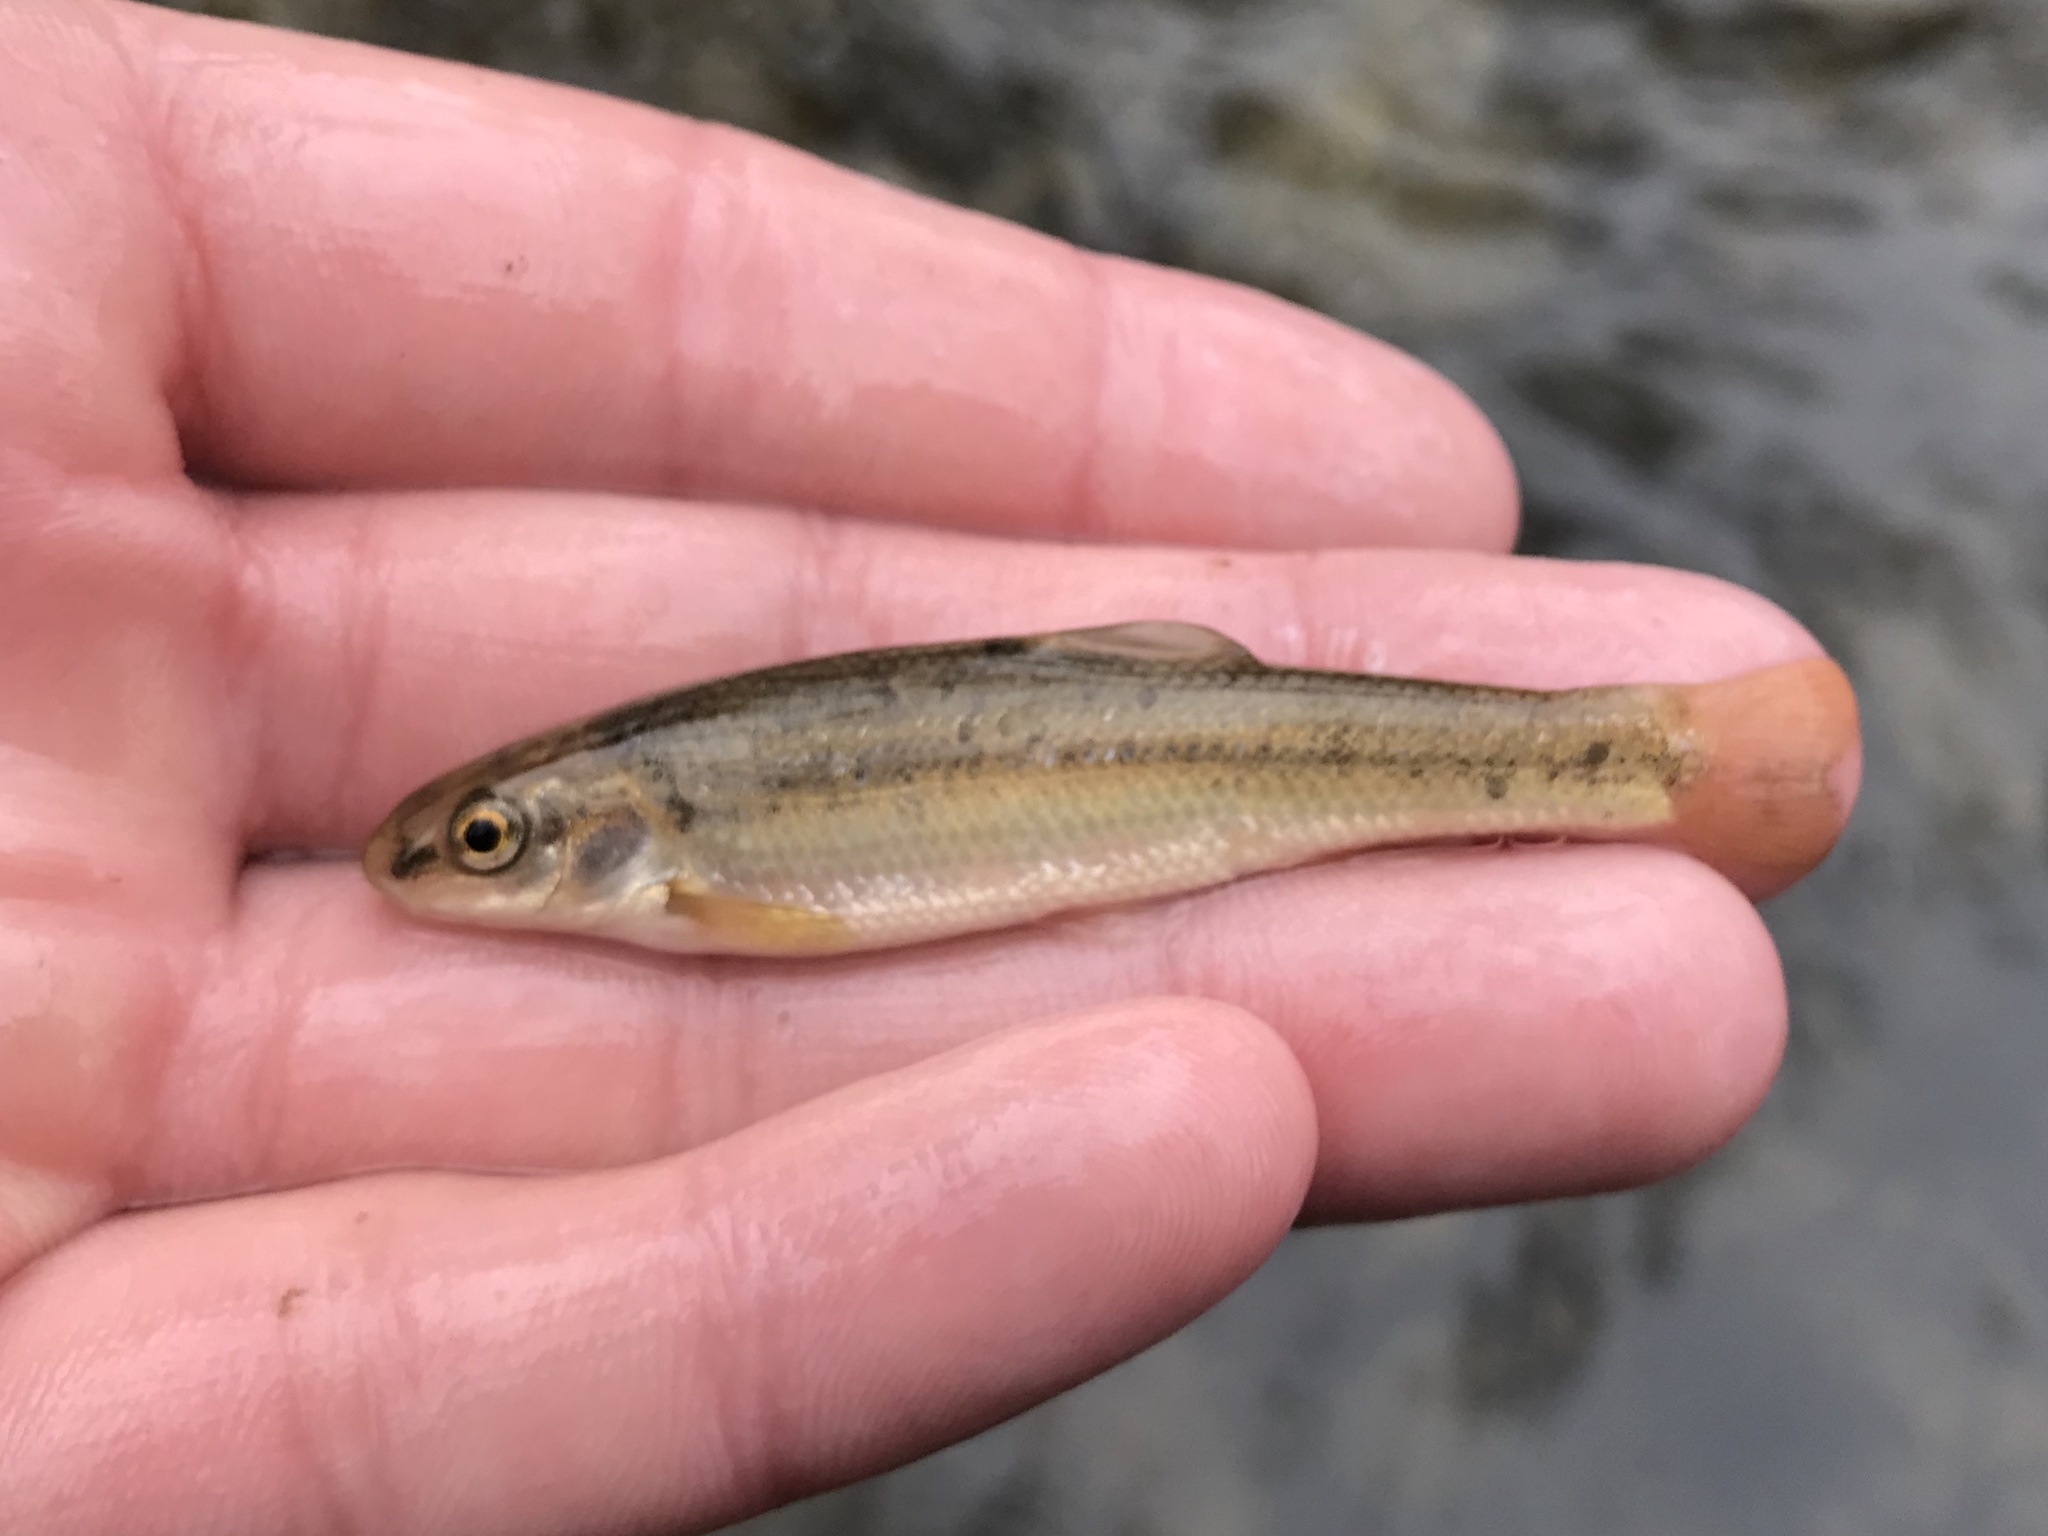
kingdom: Animalia
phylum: Chordata
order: Cypriniformes
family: Cyprinidae
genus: Campostoma
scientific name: Campostoma anomalum
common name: Central stoneroller
